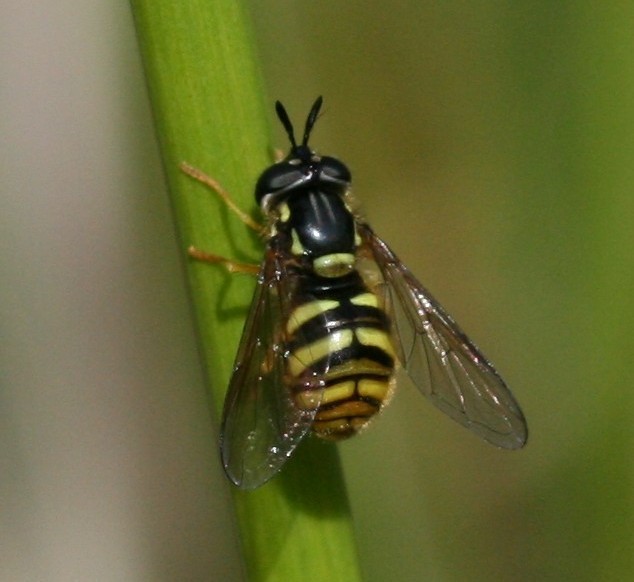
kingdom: Animalia
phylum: Arthropoda
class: Insecta
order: Diptera
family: Syrphidae
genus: Chrysotoxum
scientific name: Chrysotoxum arcuatum
